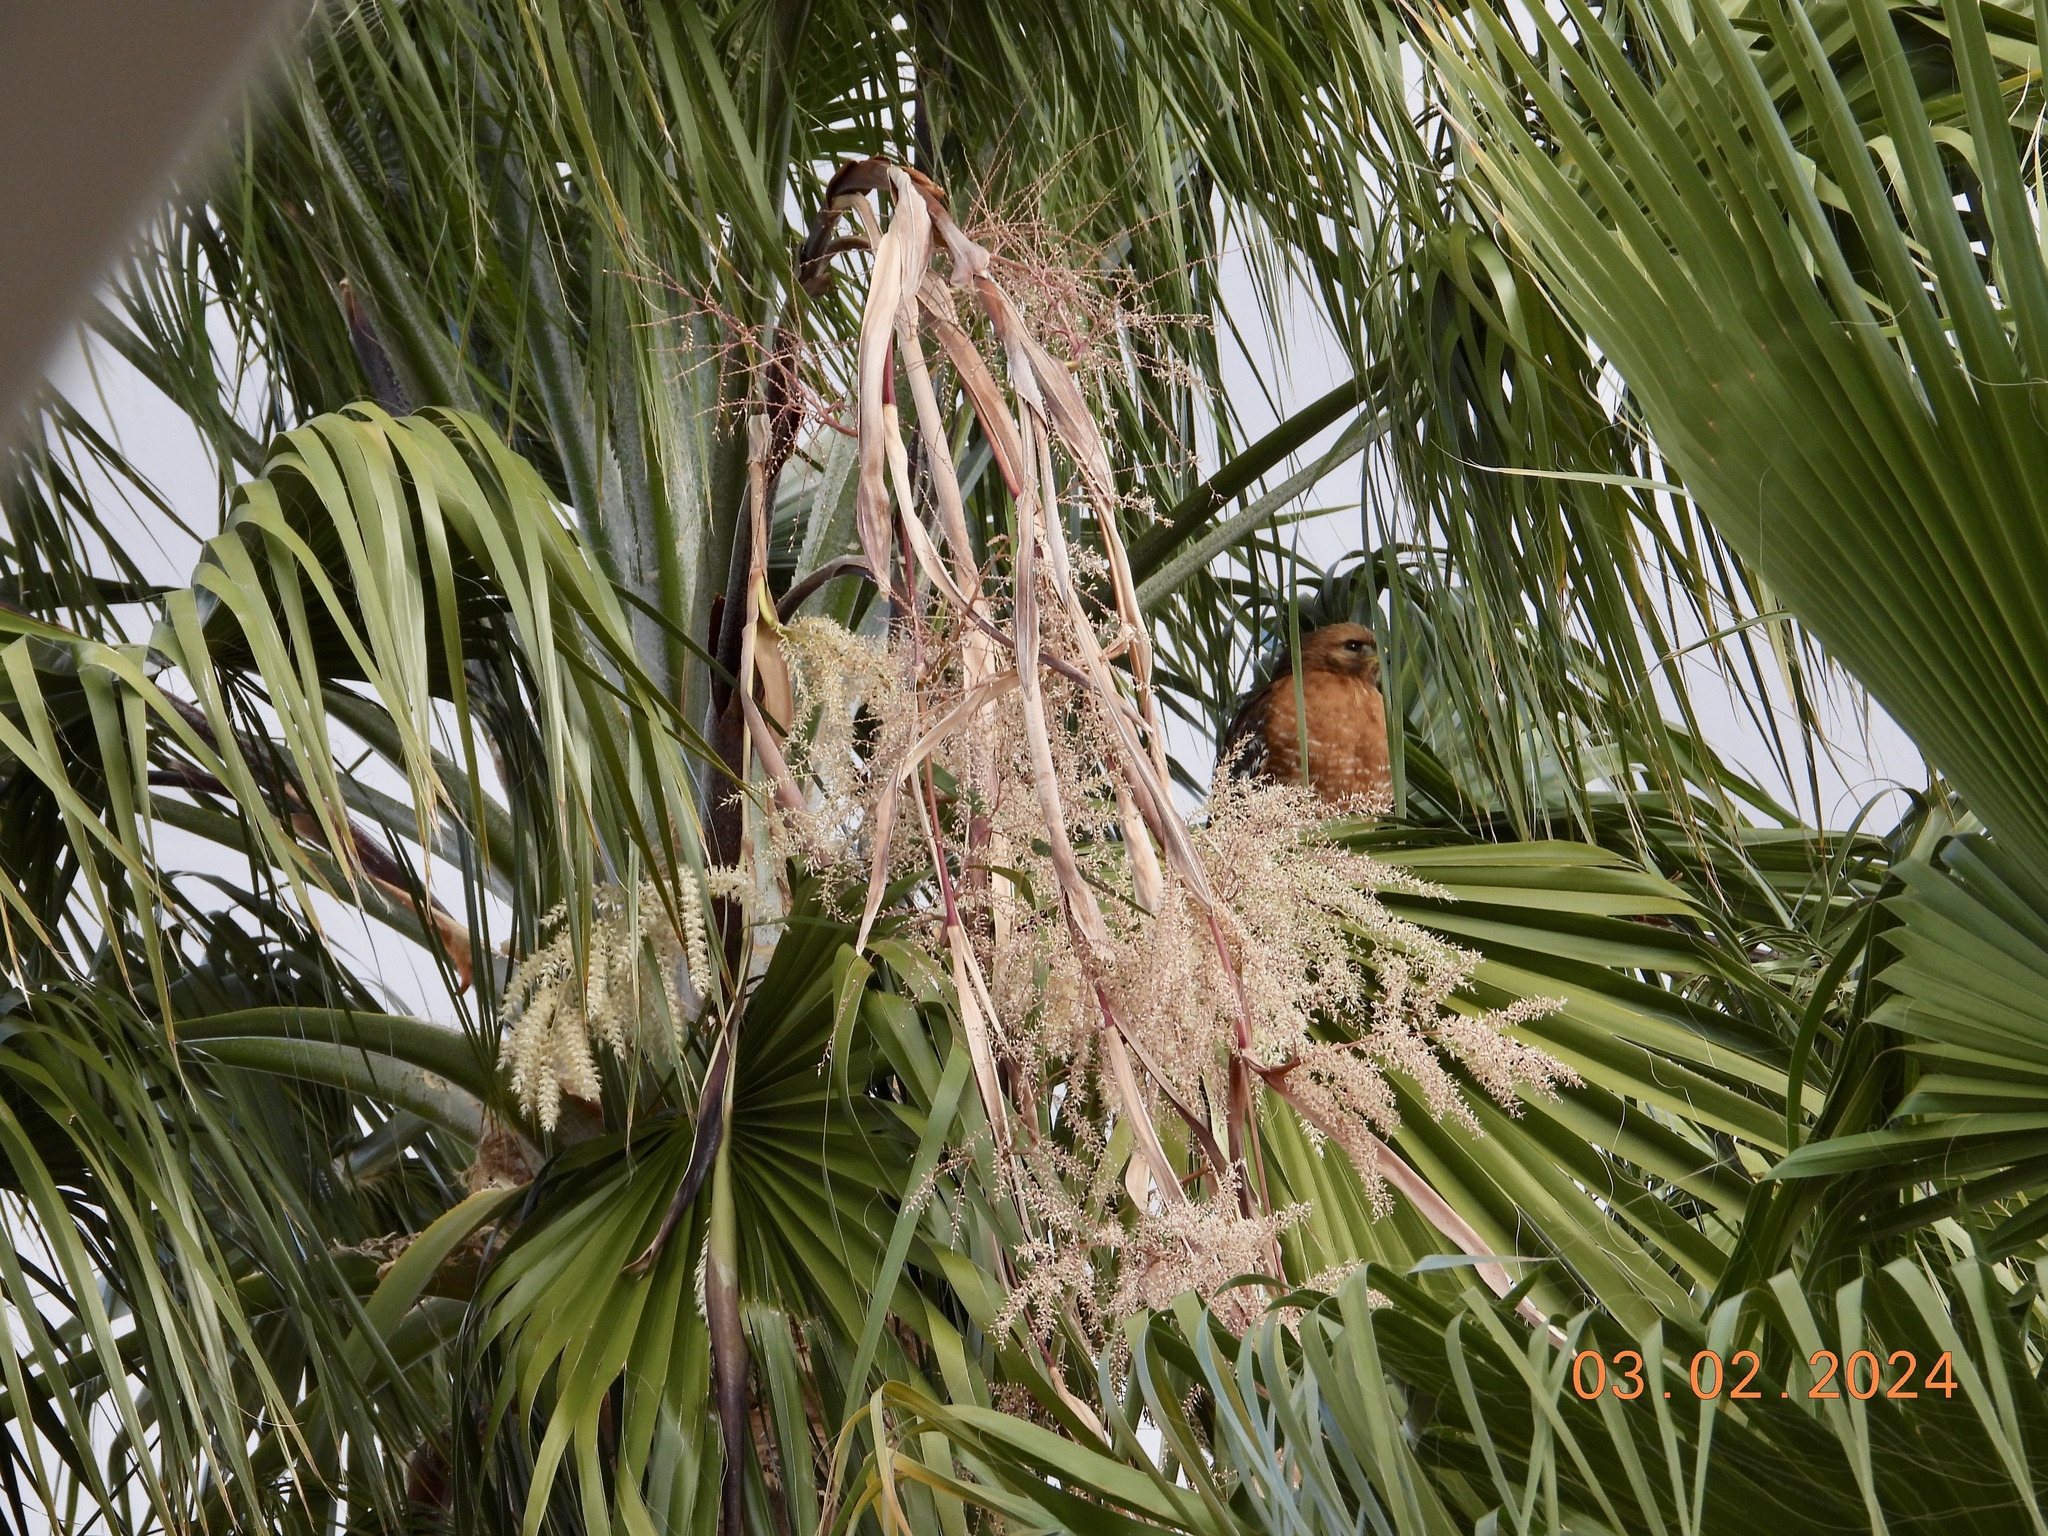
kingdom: Animalia
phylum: Chordata
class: Aves
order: Accipitriformes
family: Accipitridae
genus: Buteo
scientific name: Buteo lineatus
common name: Red-shouldered hawk
